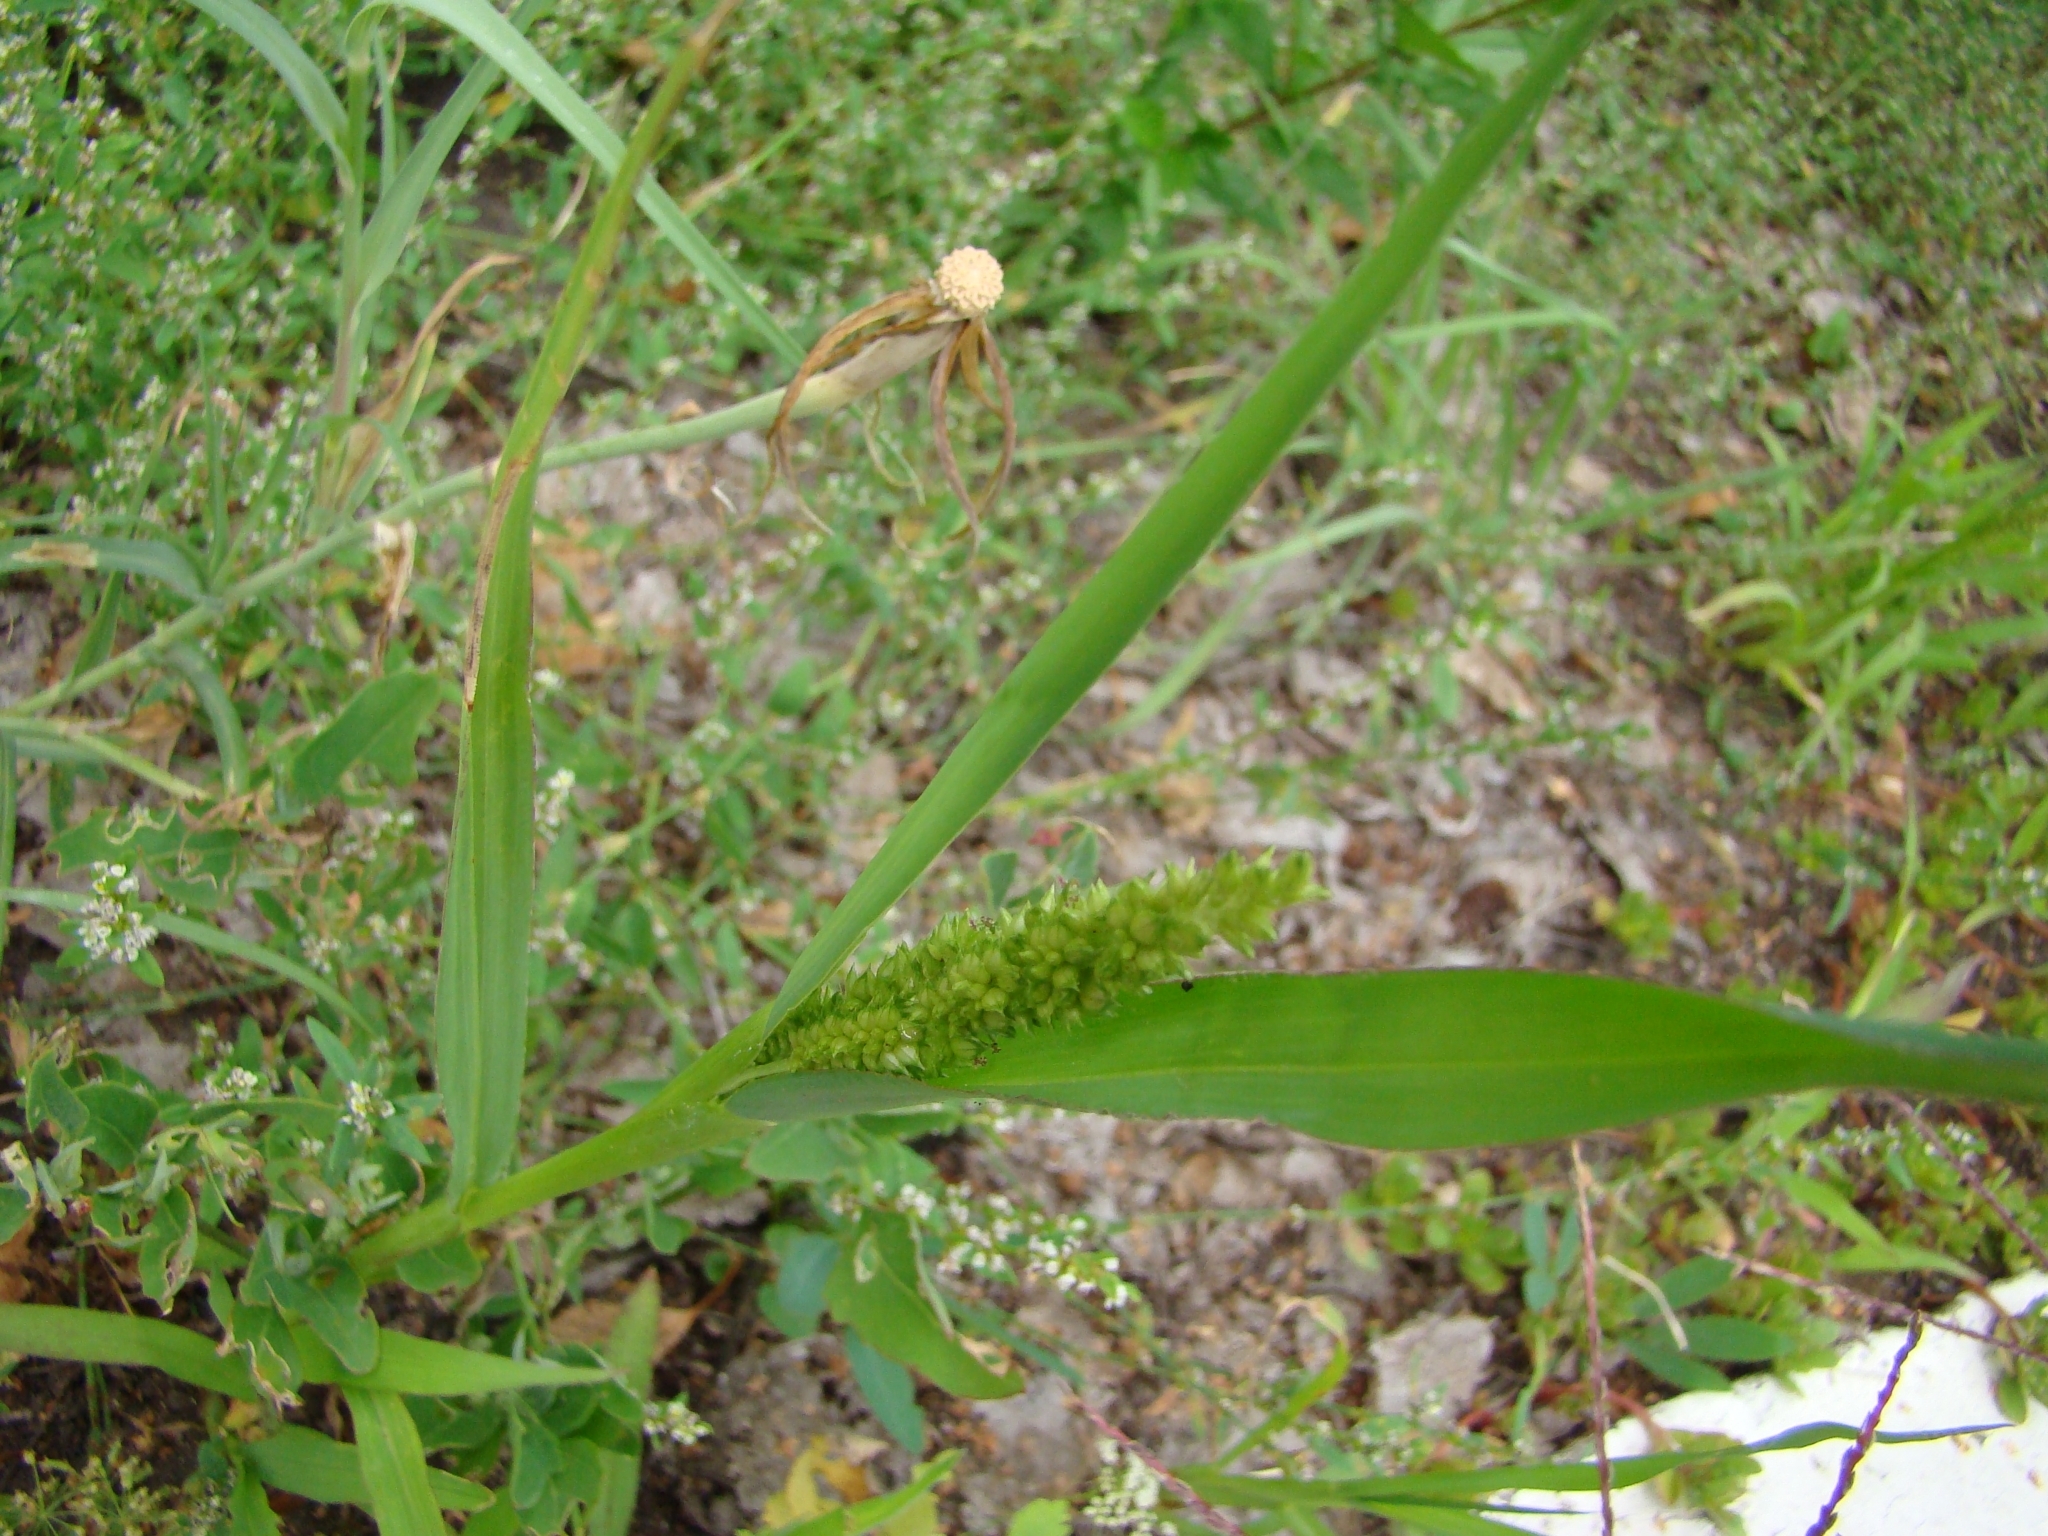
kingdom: Plantae
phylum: Tracheophyta
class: Liliopsida
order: Poales
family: Poaceae
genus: Echinochloa
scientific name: Echinochloa crus-galli
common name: Cockspur
